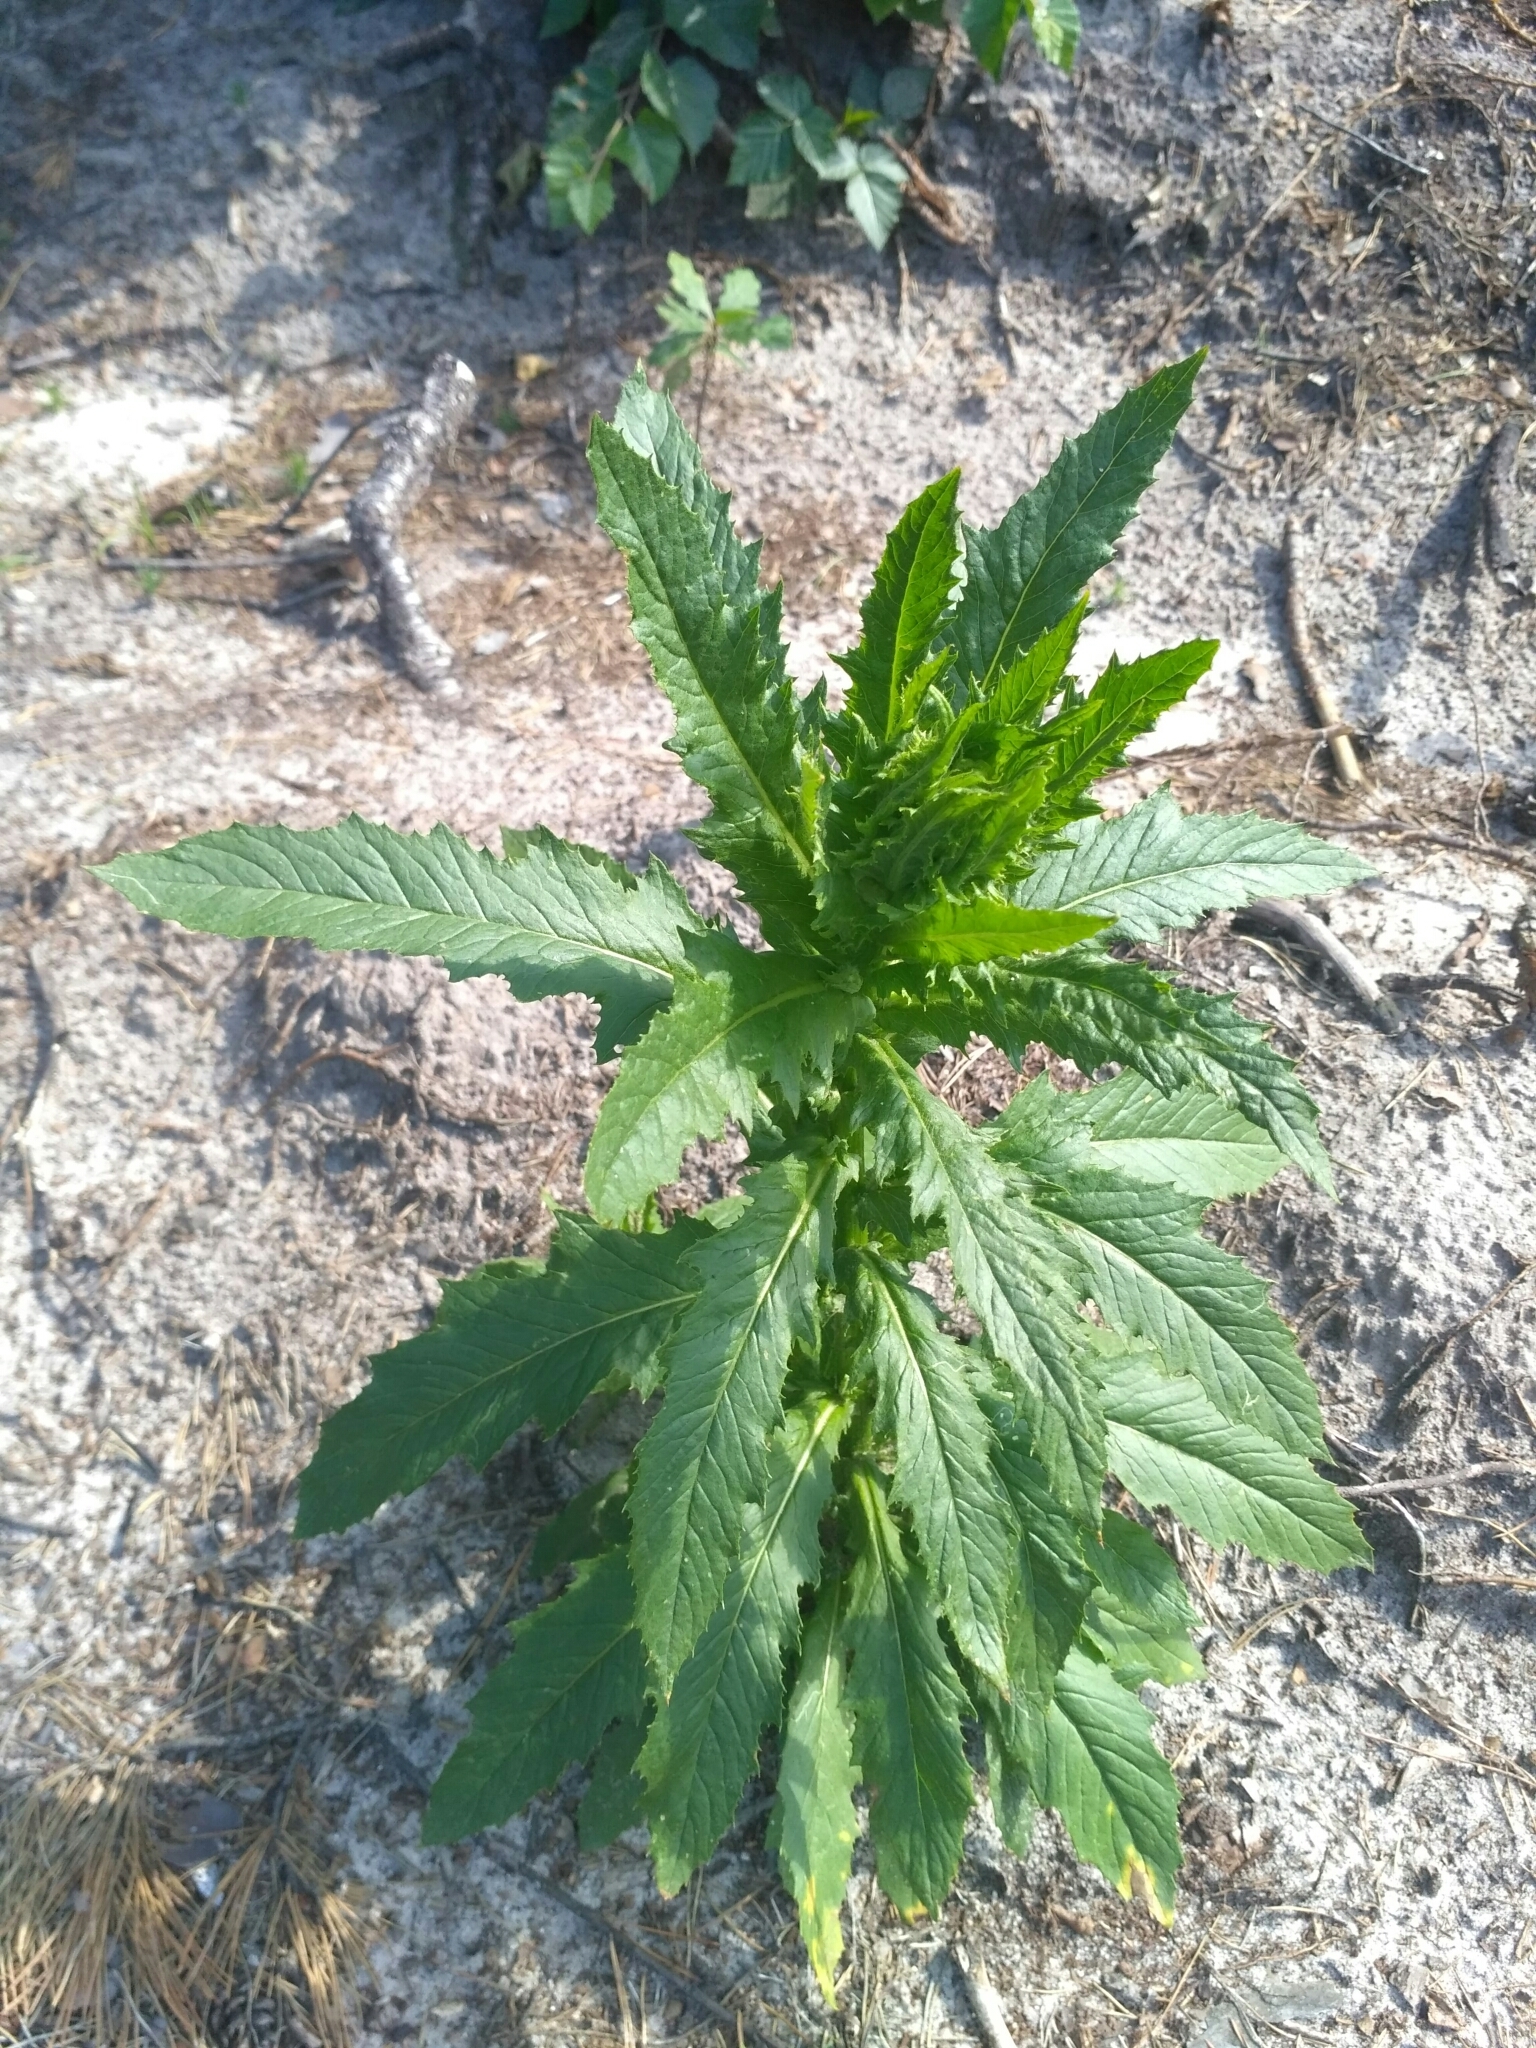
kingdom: Plantae
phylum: Tracheophyta
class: Magnoliopsida
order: Asterales
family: Asteraceae
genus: Erechtites
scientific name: Erechtites hieraciifolius
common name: American burnweed
